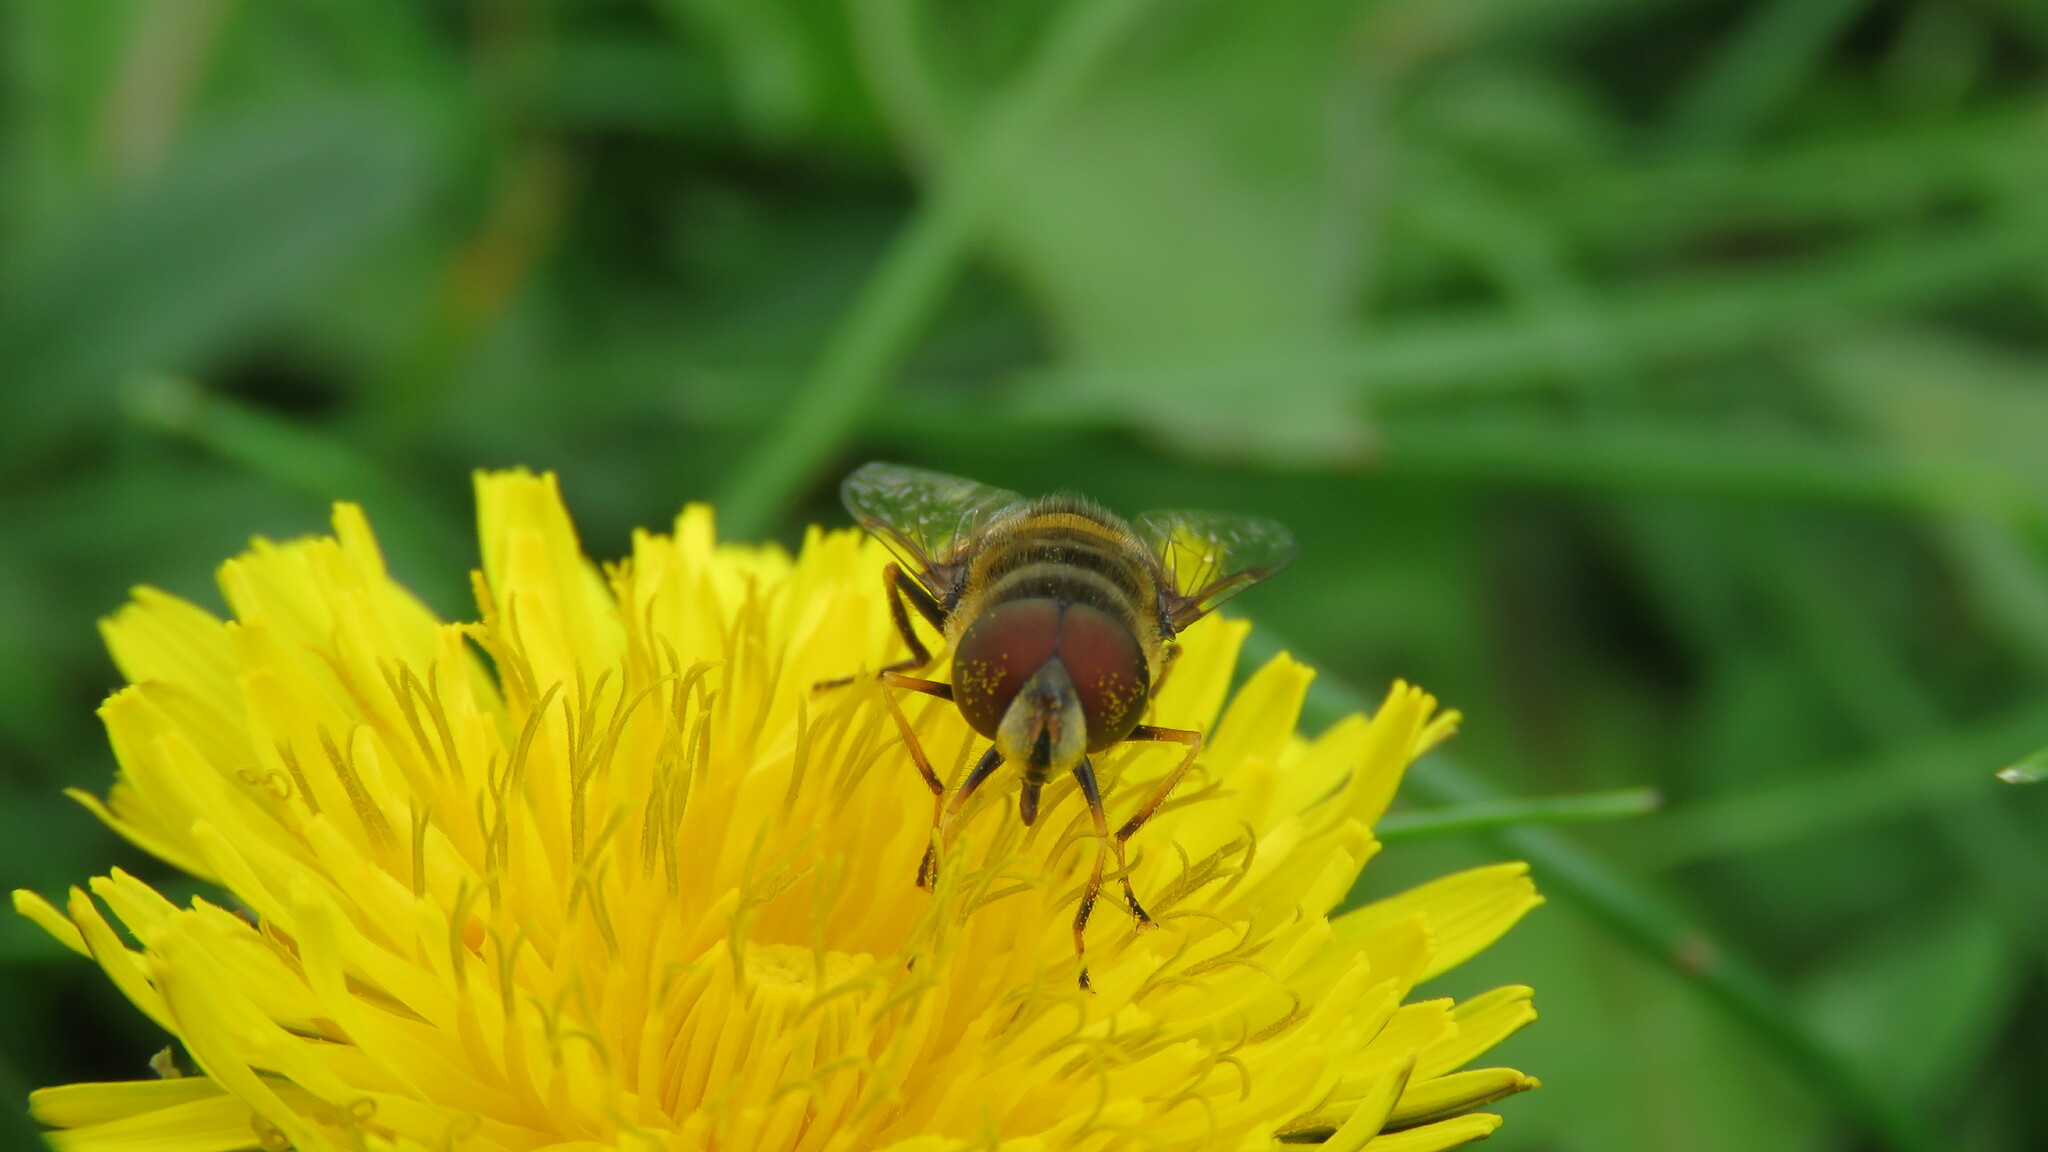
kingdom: Animalia
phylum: Arthropoda
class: Insecta
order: Diptera
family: Syrphidae
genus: Eristalis
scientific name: Eristalis transversa
